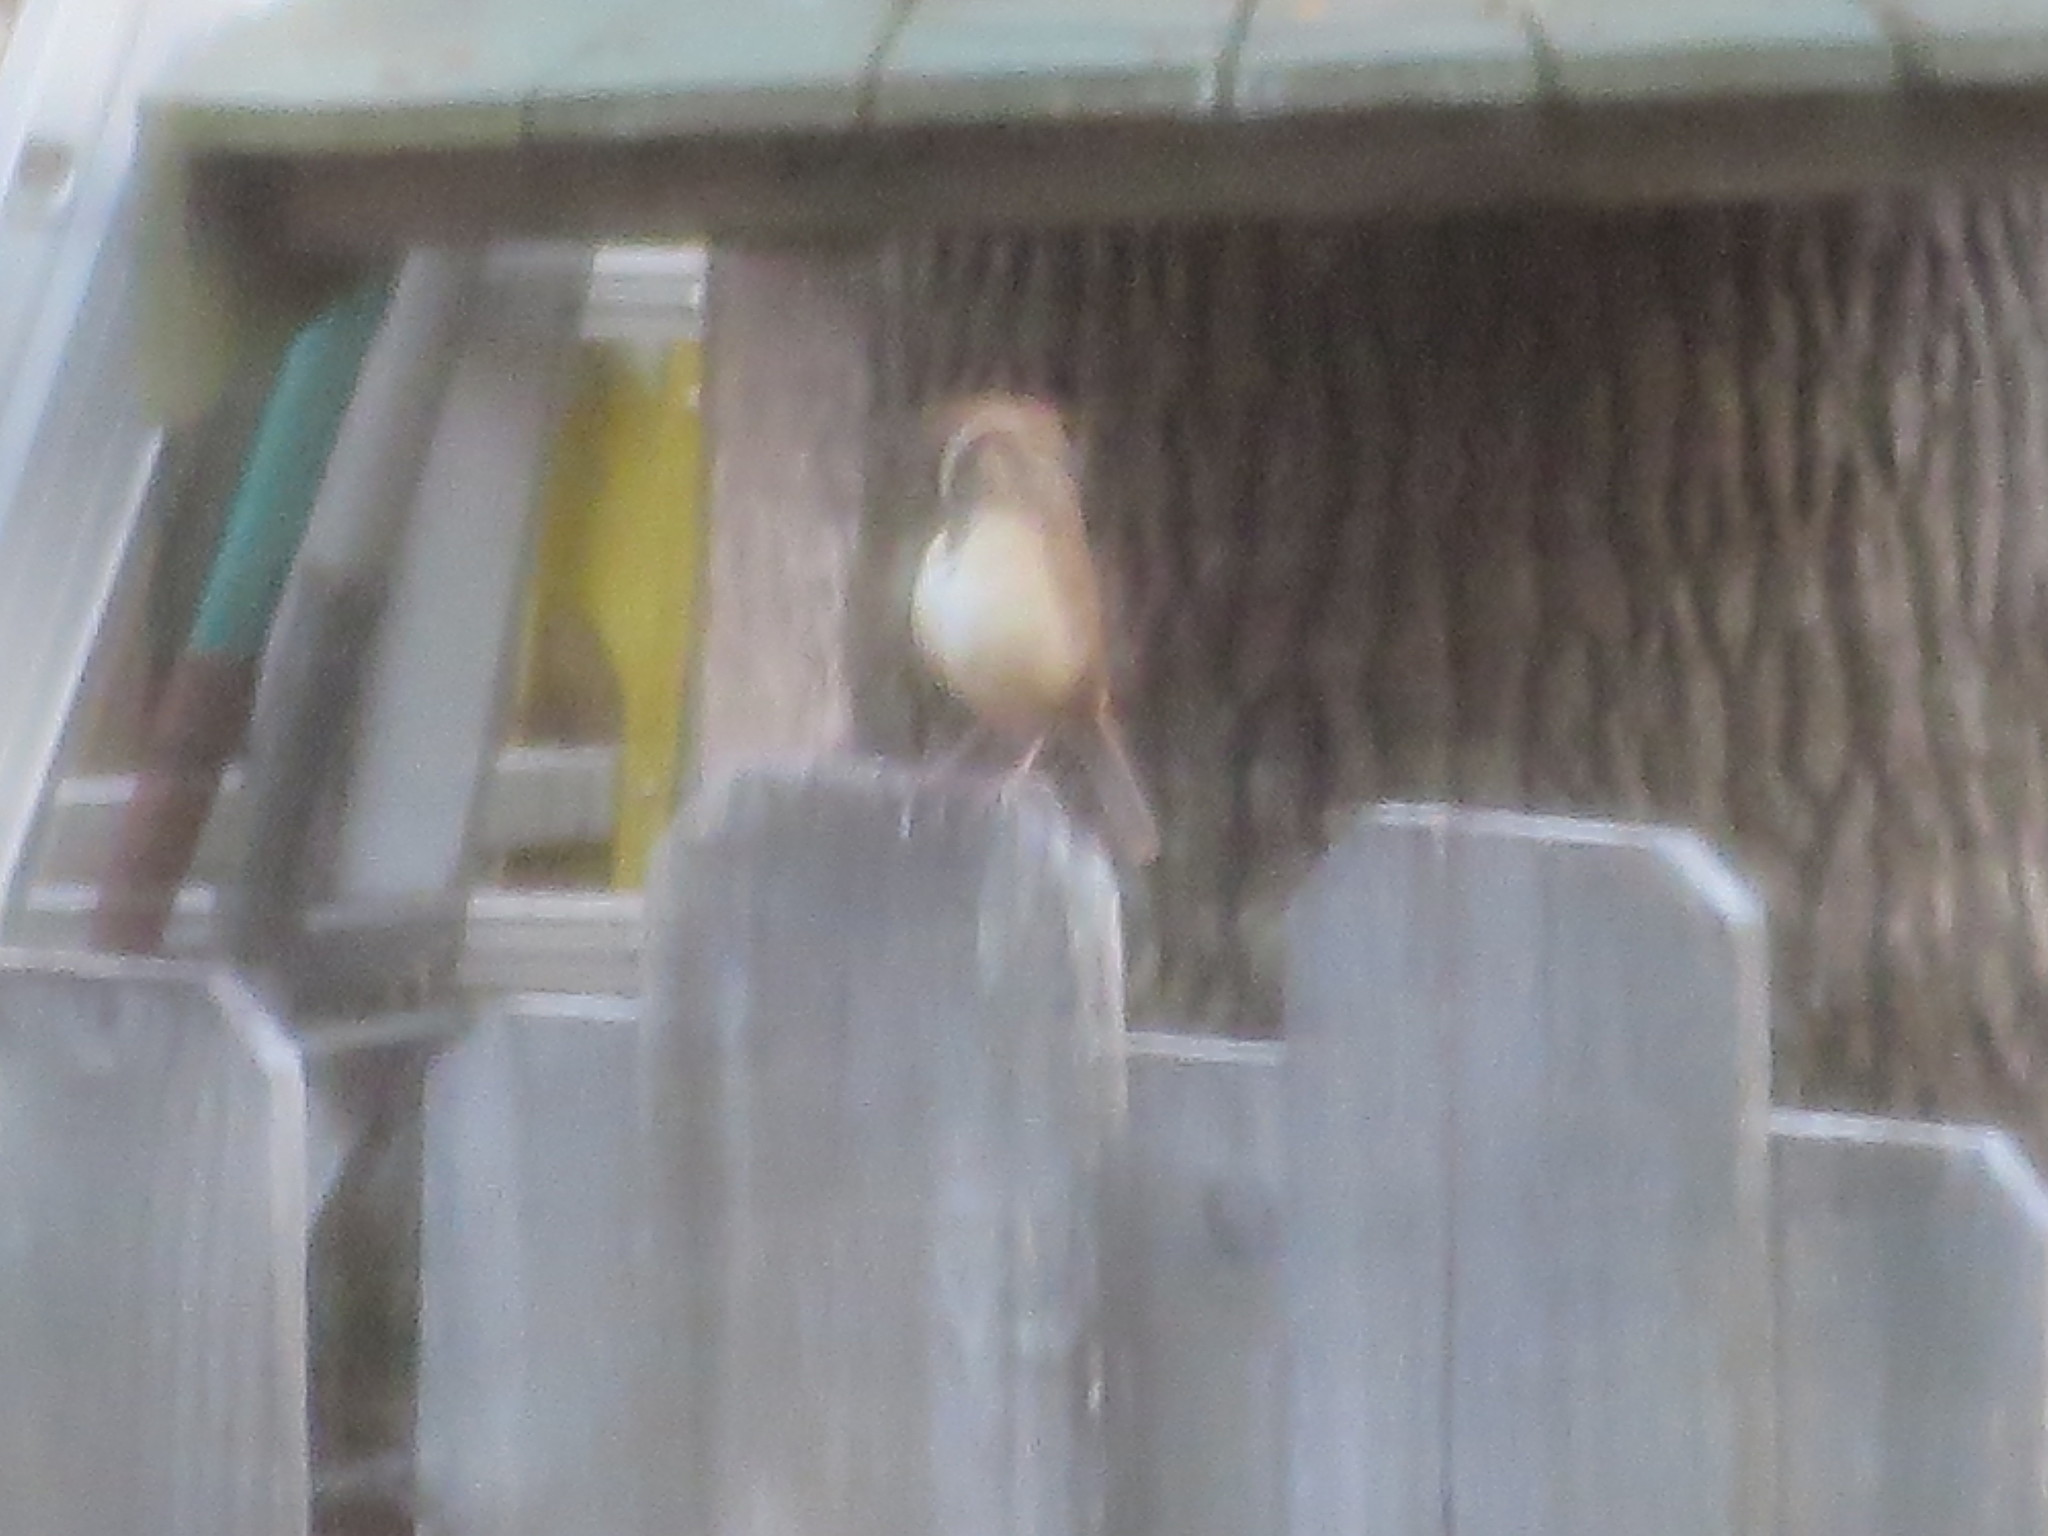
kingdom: Animalia
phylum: Chordata
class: Aves
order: Passeriformes
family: Troglodytidae
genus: Thryothorus
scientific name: Thryothorus ludovicianus
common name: Carolina wren
